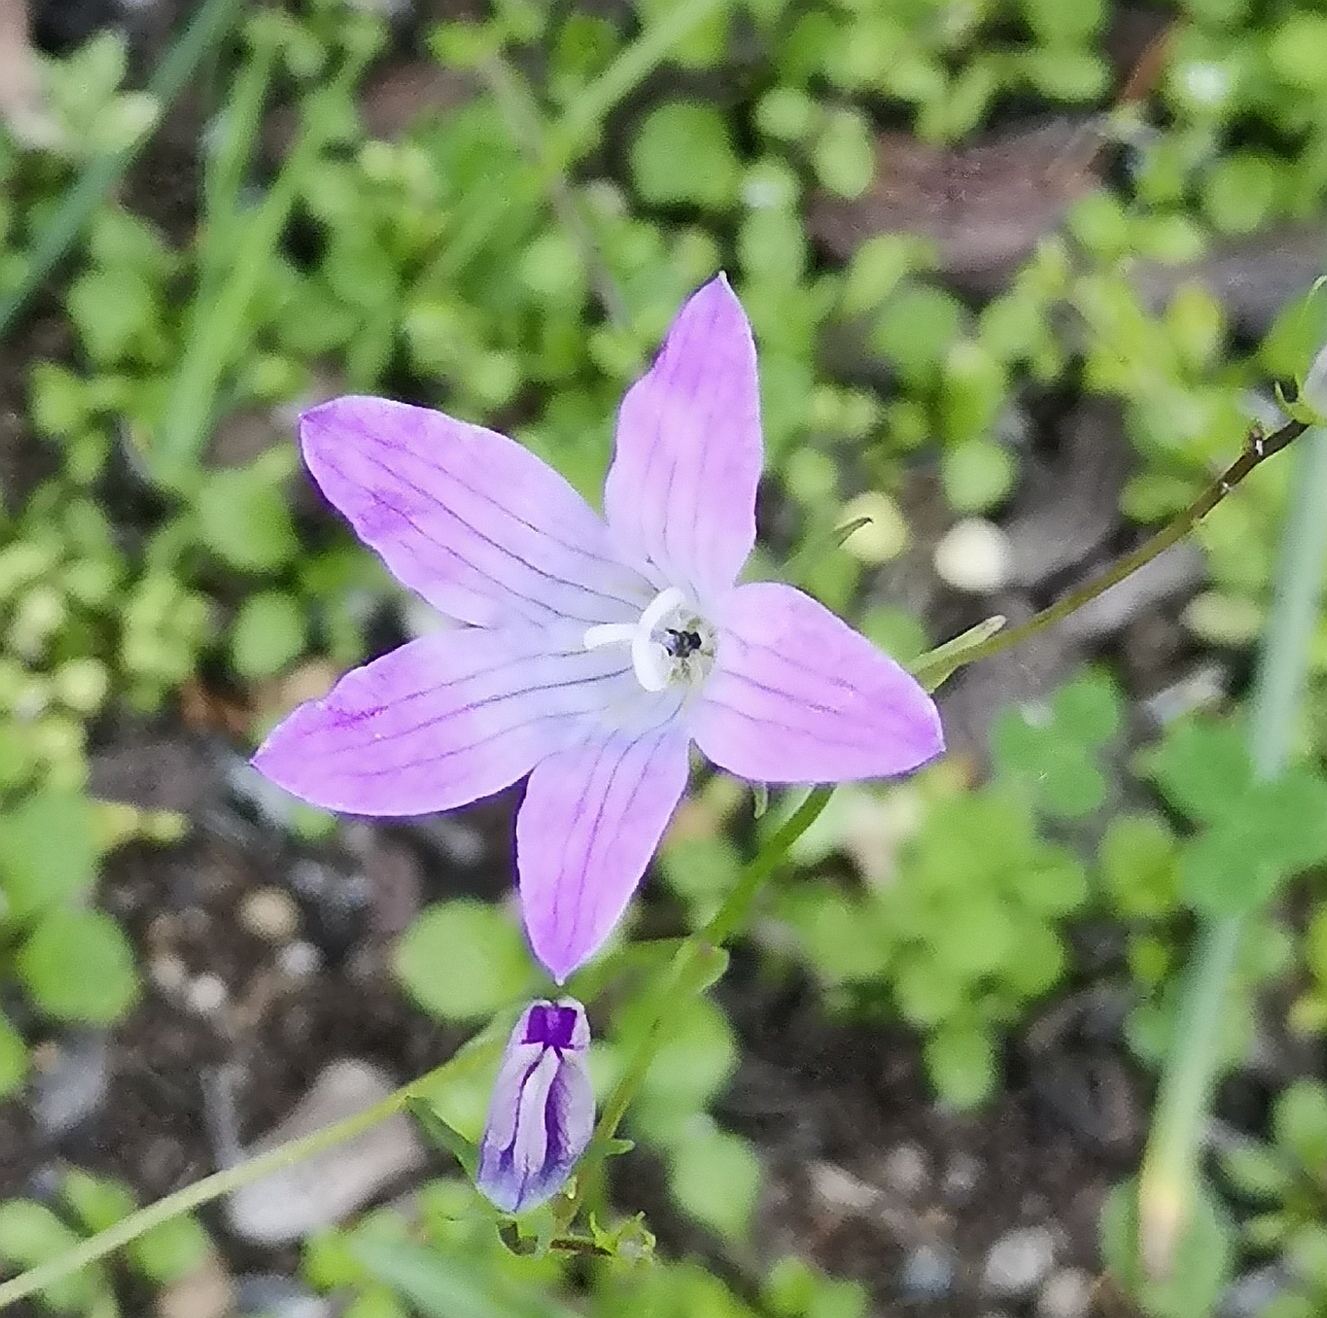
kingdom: Plantae
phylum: Tracheophyta
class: Magnoliopsida
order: Asterales
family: Campanulaceae
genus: Campanula
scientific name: Campanula patula
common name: Spreading bellflower
